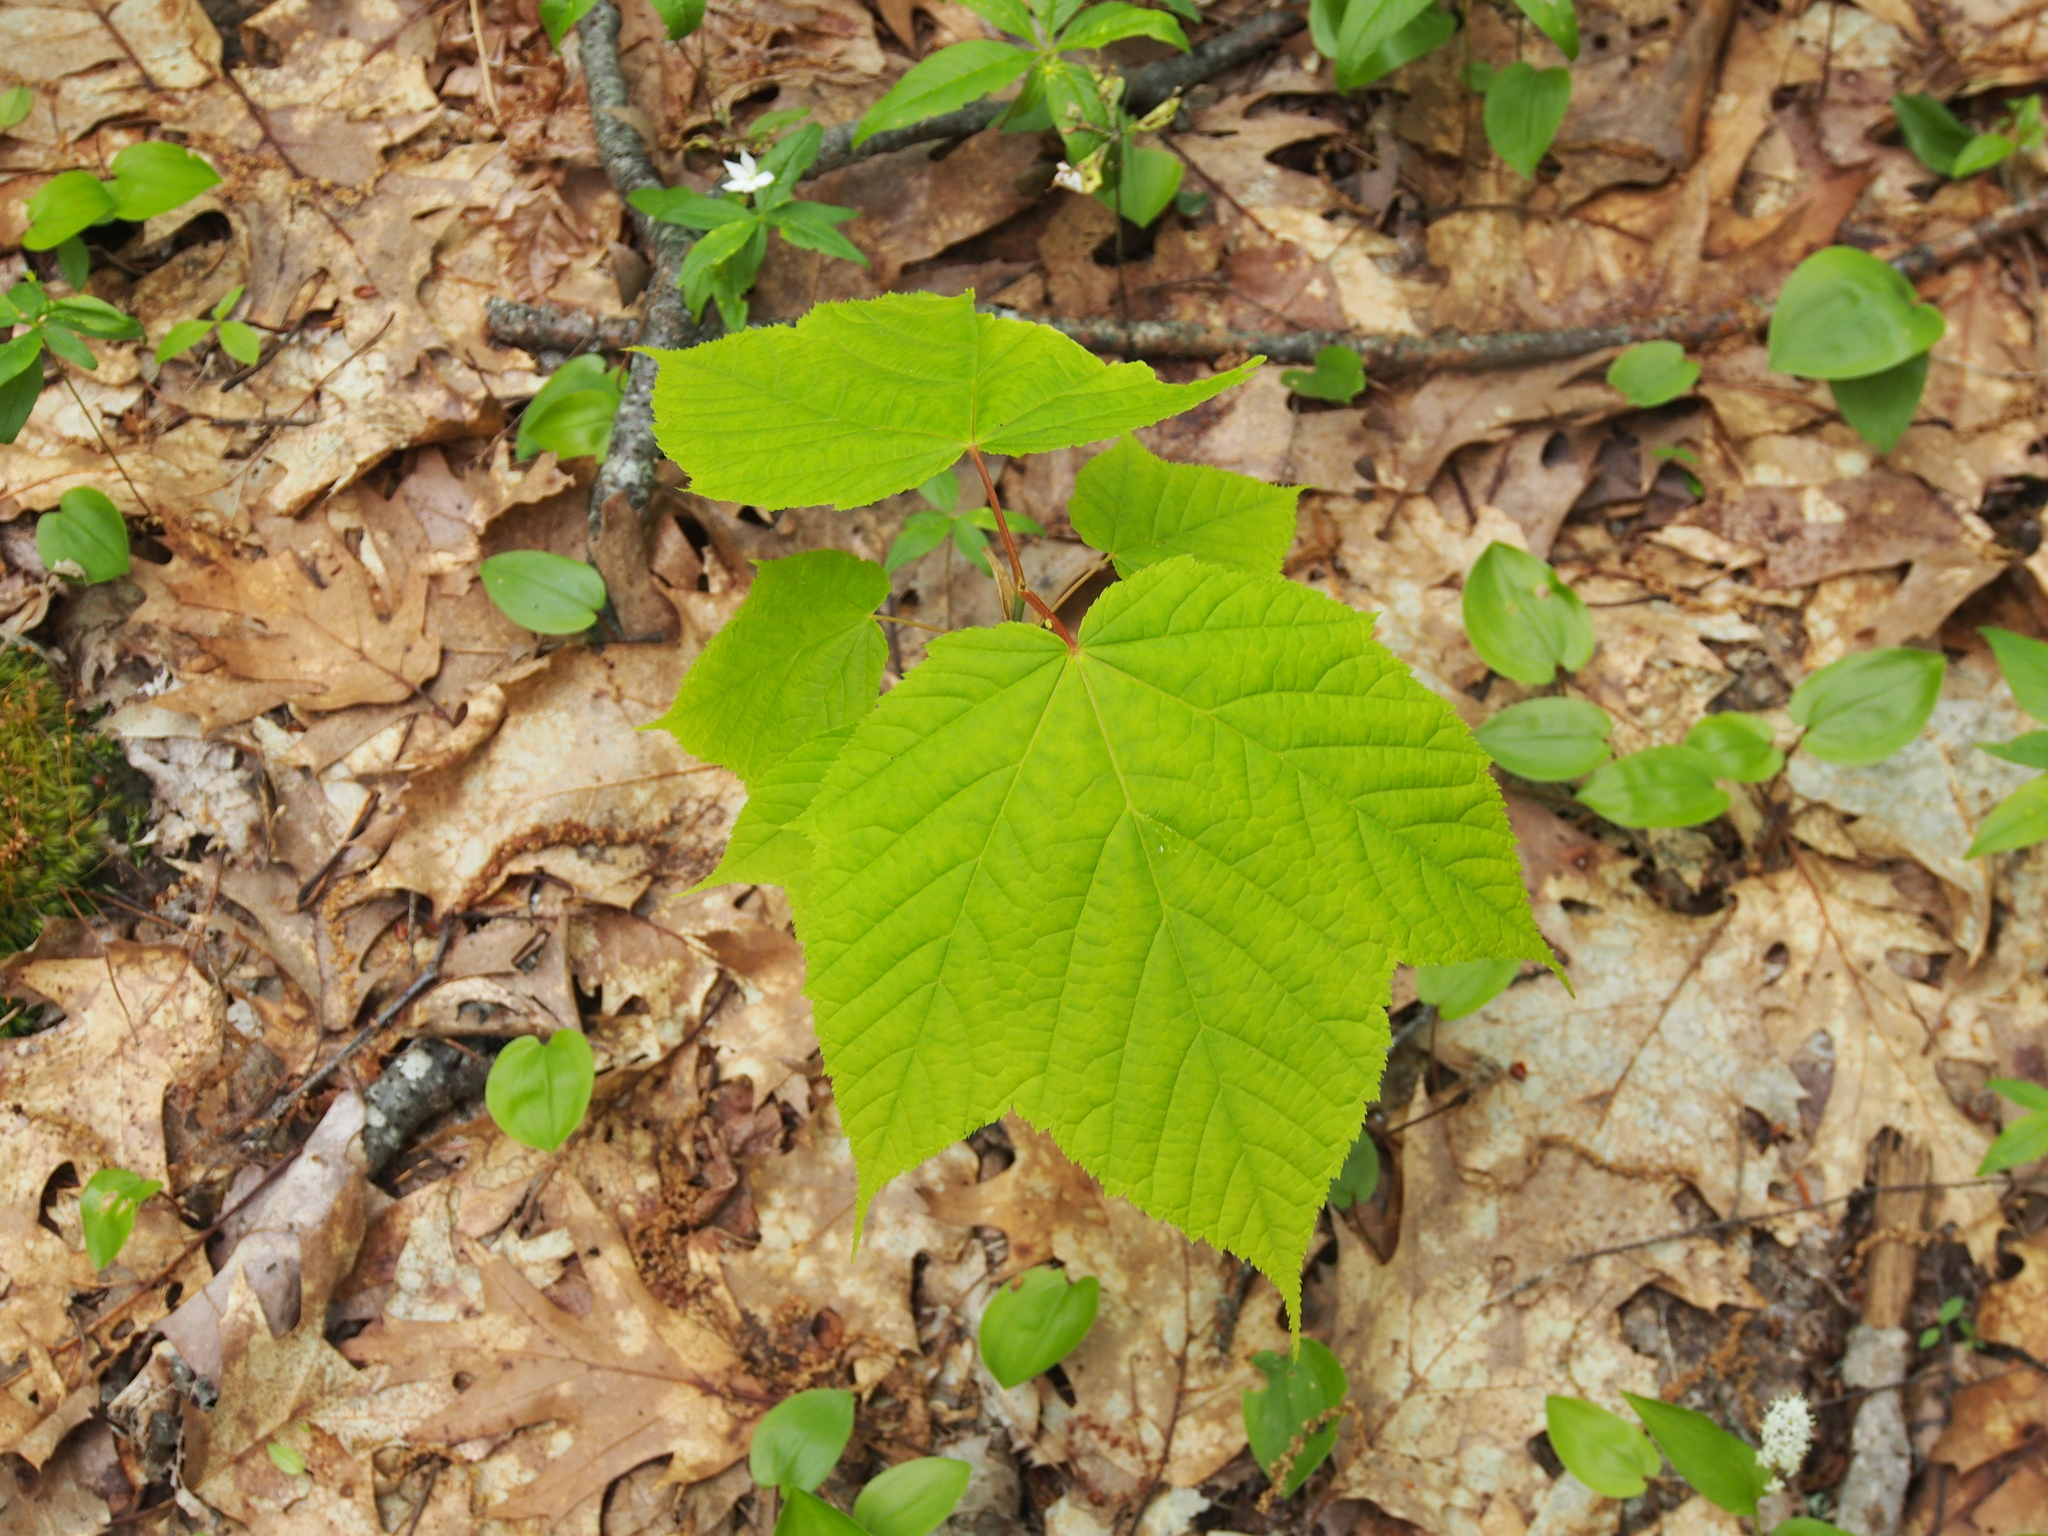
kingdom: Plantae
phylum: Tracheophyta
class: Magnoliopsida
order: Sapindales
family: Sapindaceae
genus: Acer
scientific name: Acer pensylvanicum
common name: Moosewood
